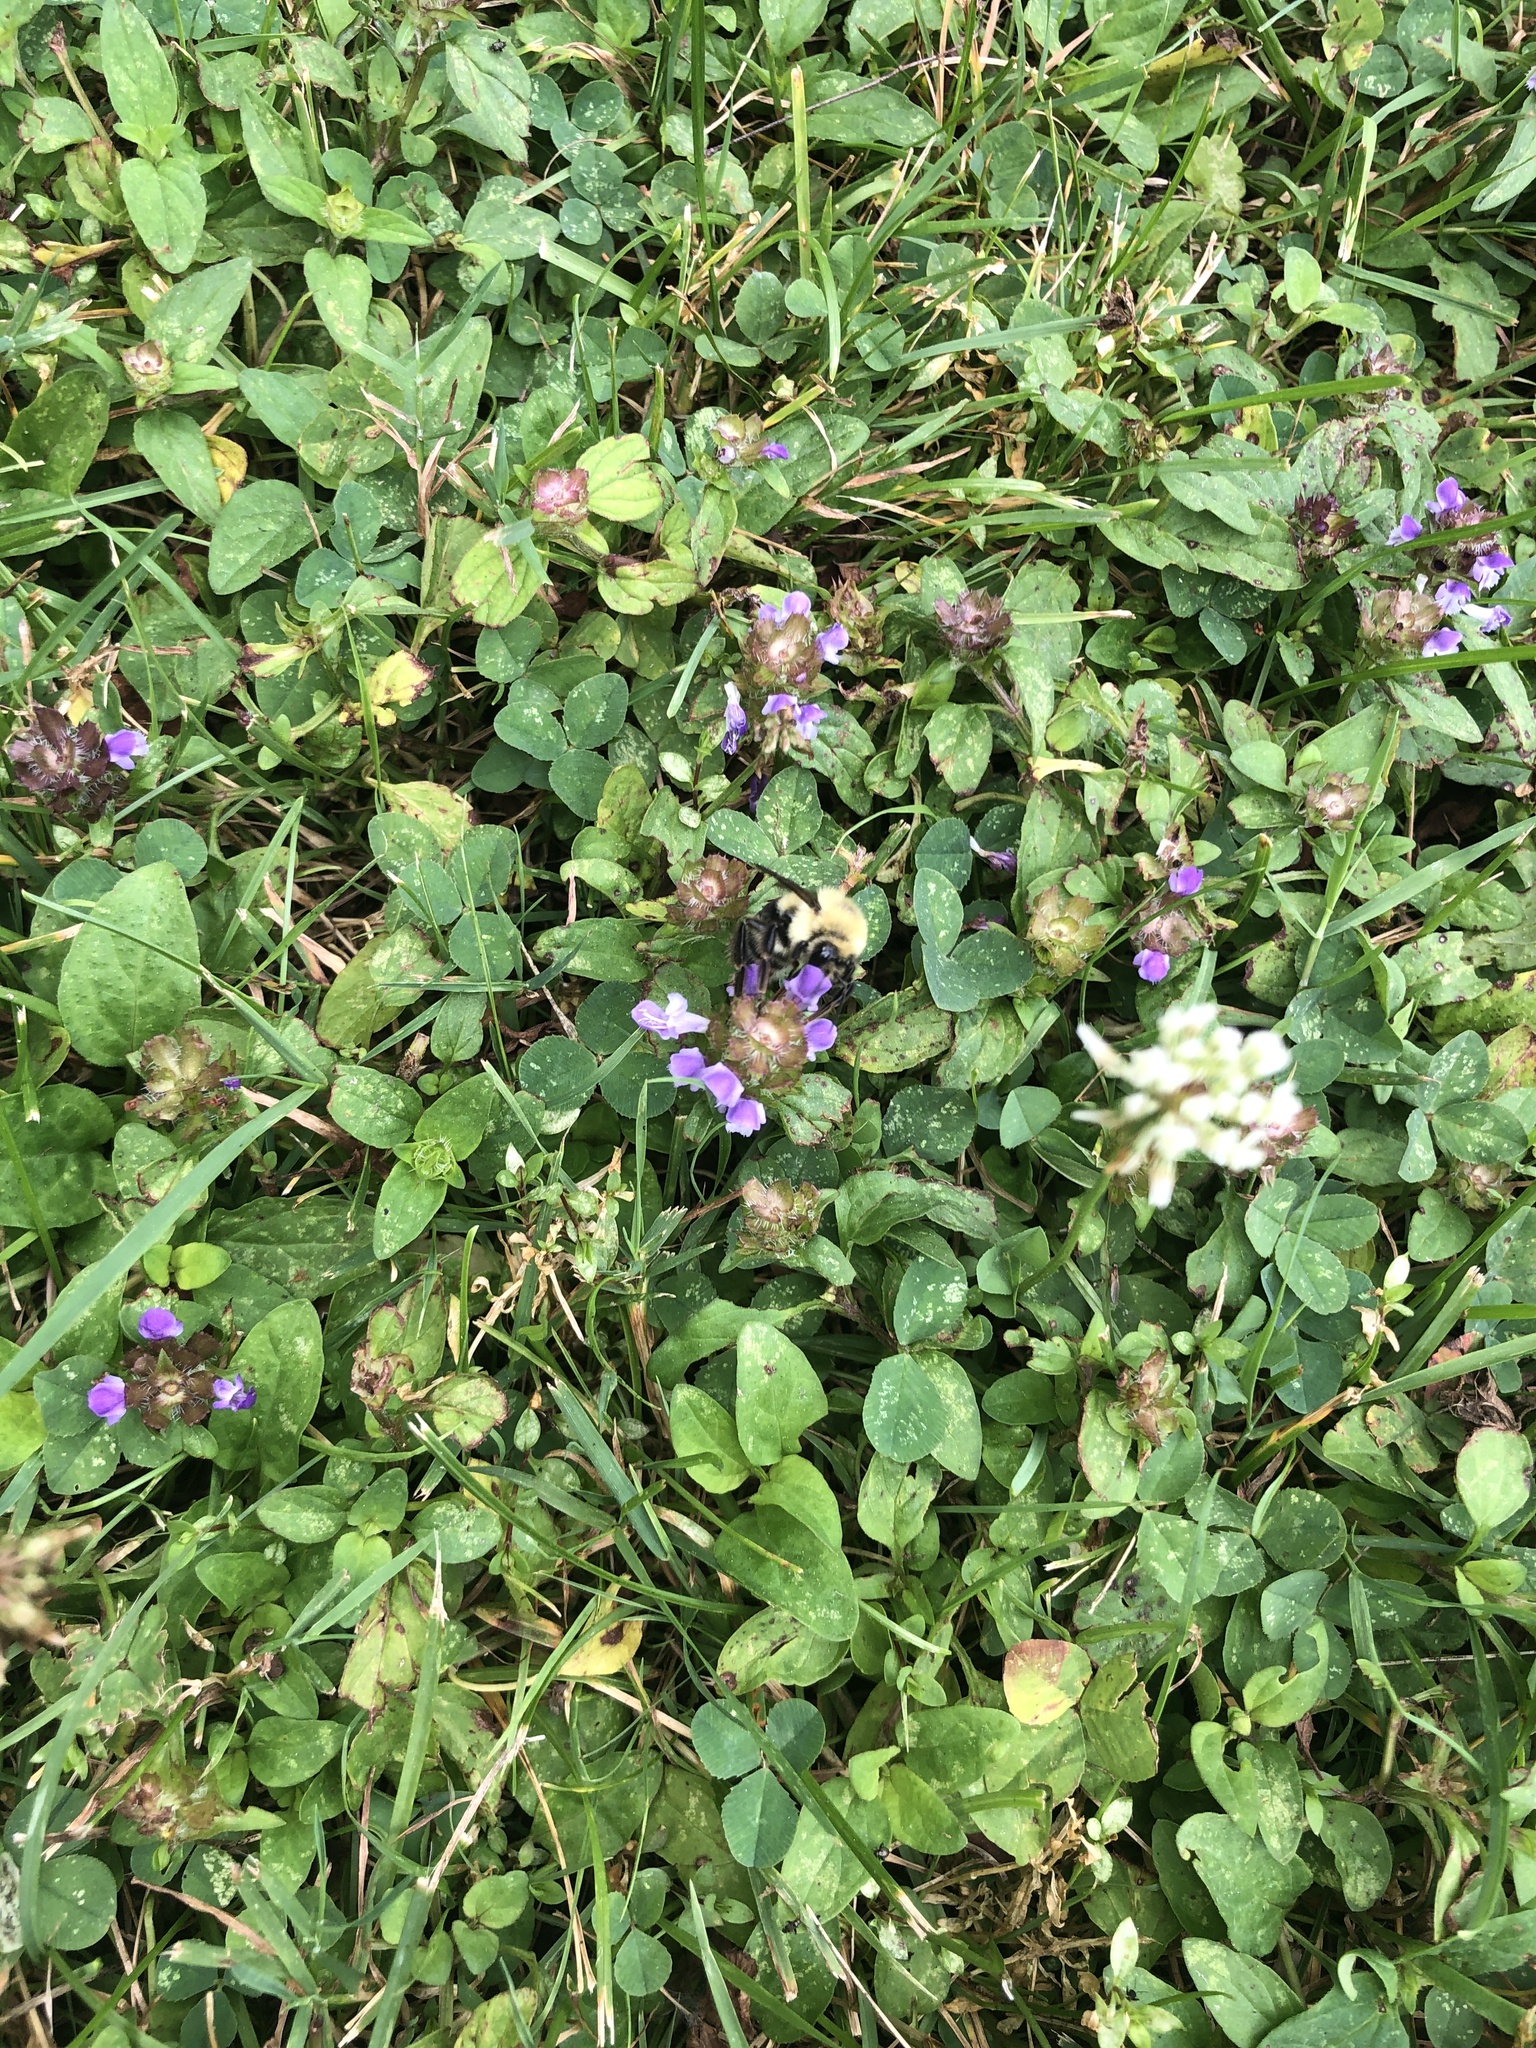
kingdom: Animalia
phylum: Arthropoda
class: Insecta
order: Hymenoptera
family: Apidae
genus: Bombus
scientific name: Bombus bimaculatus
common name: Two-spotted bumble bee
